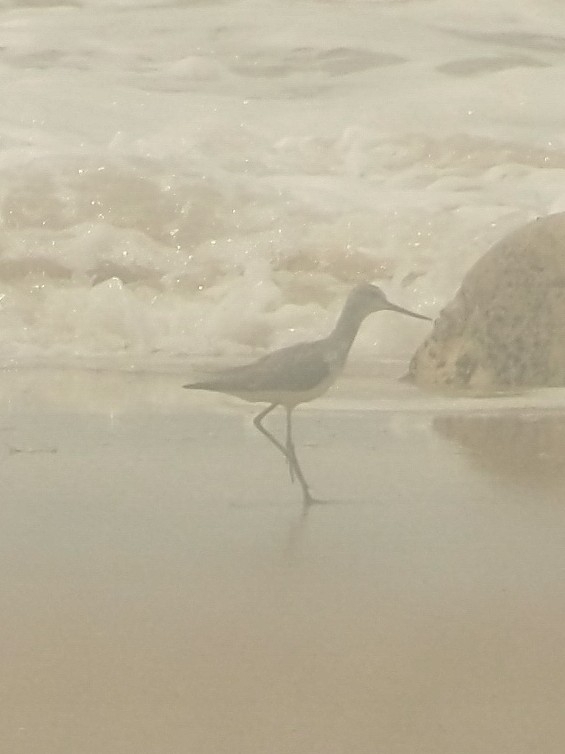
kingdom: Animalia
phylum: Chordata
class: Aves
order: Charadriiformes
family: Scolopacidae
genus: Tringa
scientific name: Tringa nebularia
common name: Common greenshank
